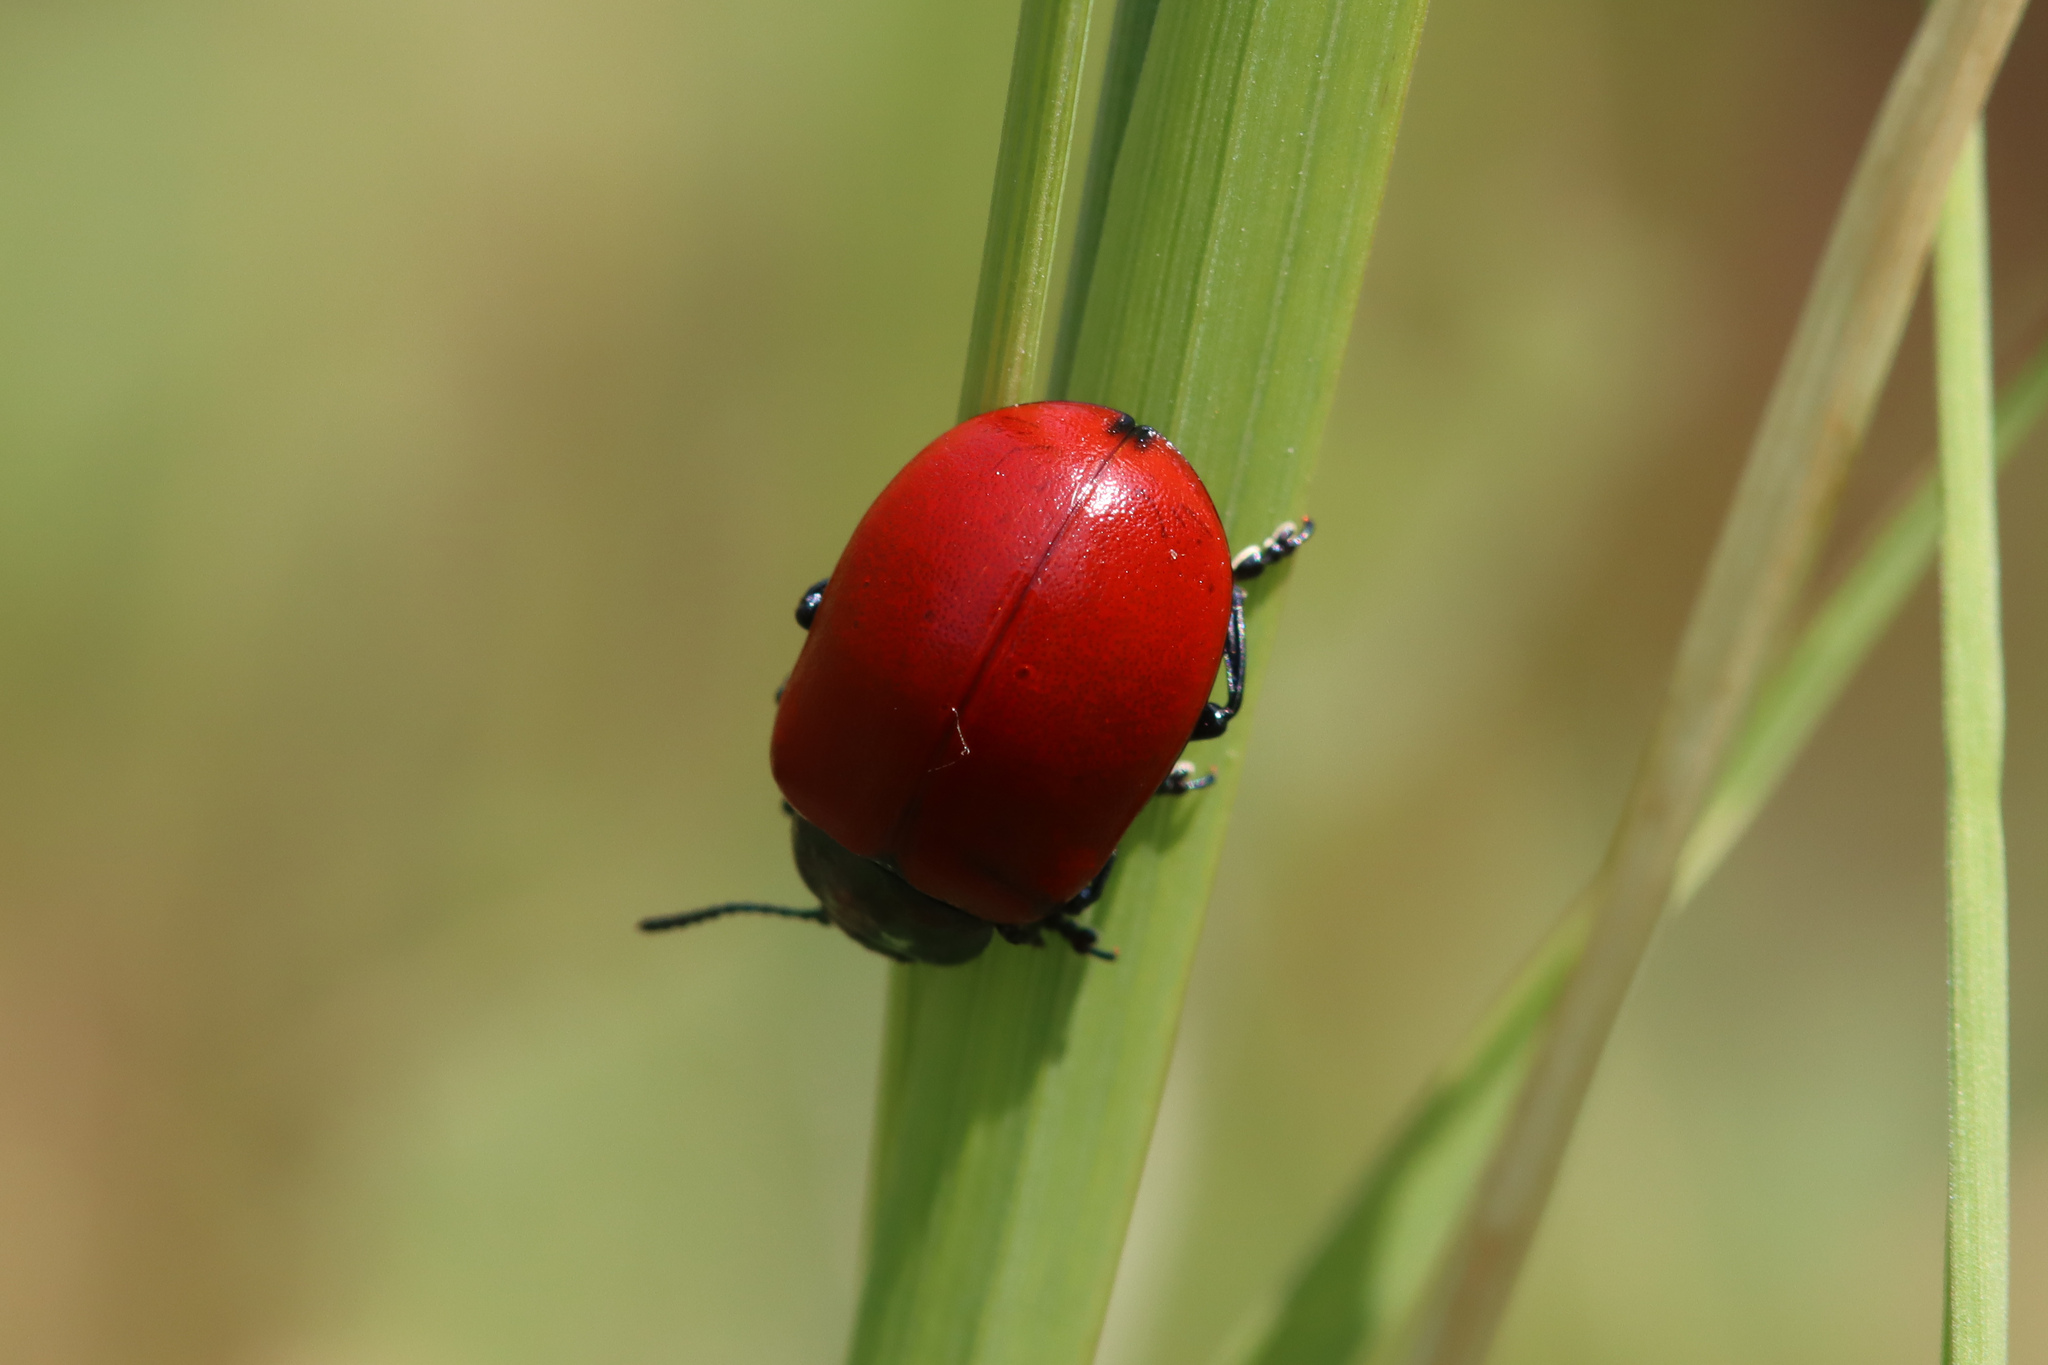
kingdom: Animalia
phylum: Arthropoda
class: Insecta
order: Coleoptera
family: Chrysomelidae
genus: Chrysomela
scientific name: Chrysomela populi
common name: Red poplar leaf beetle
